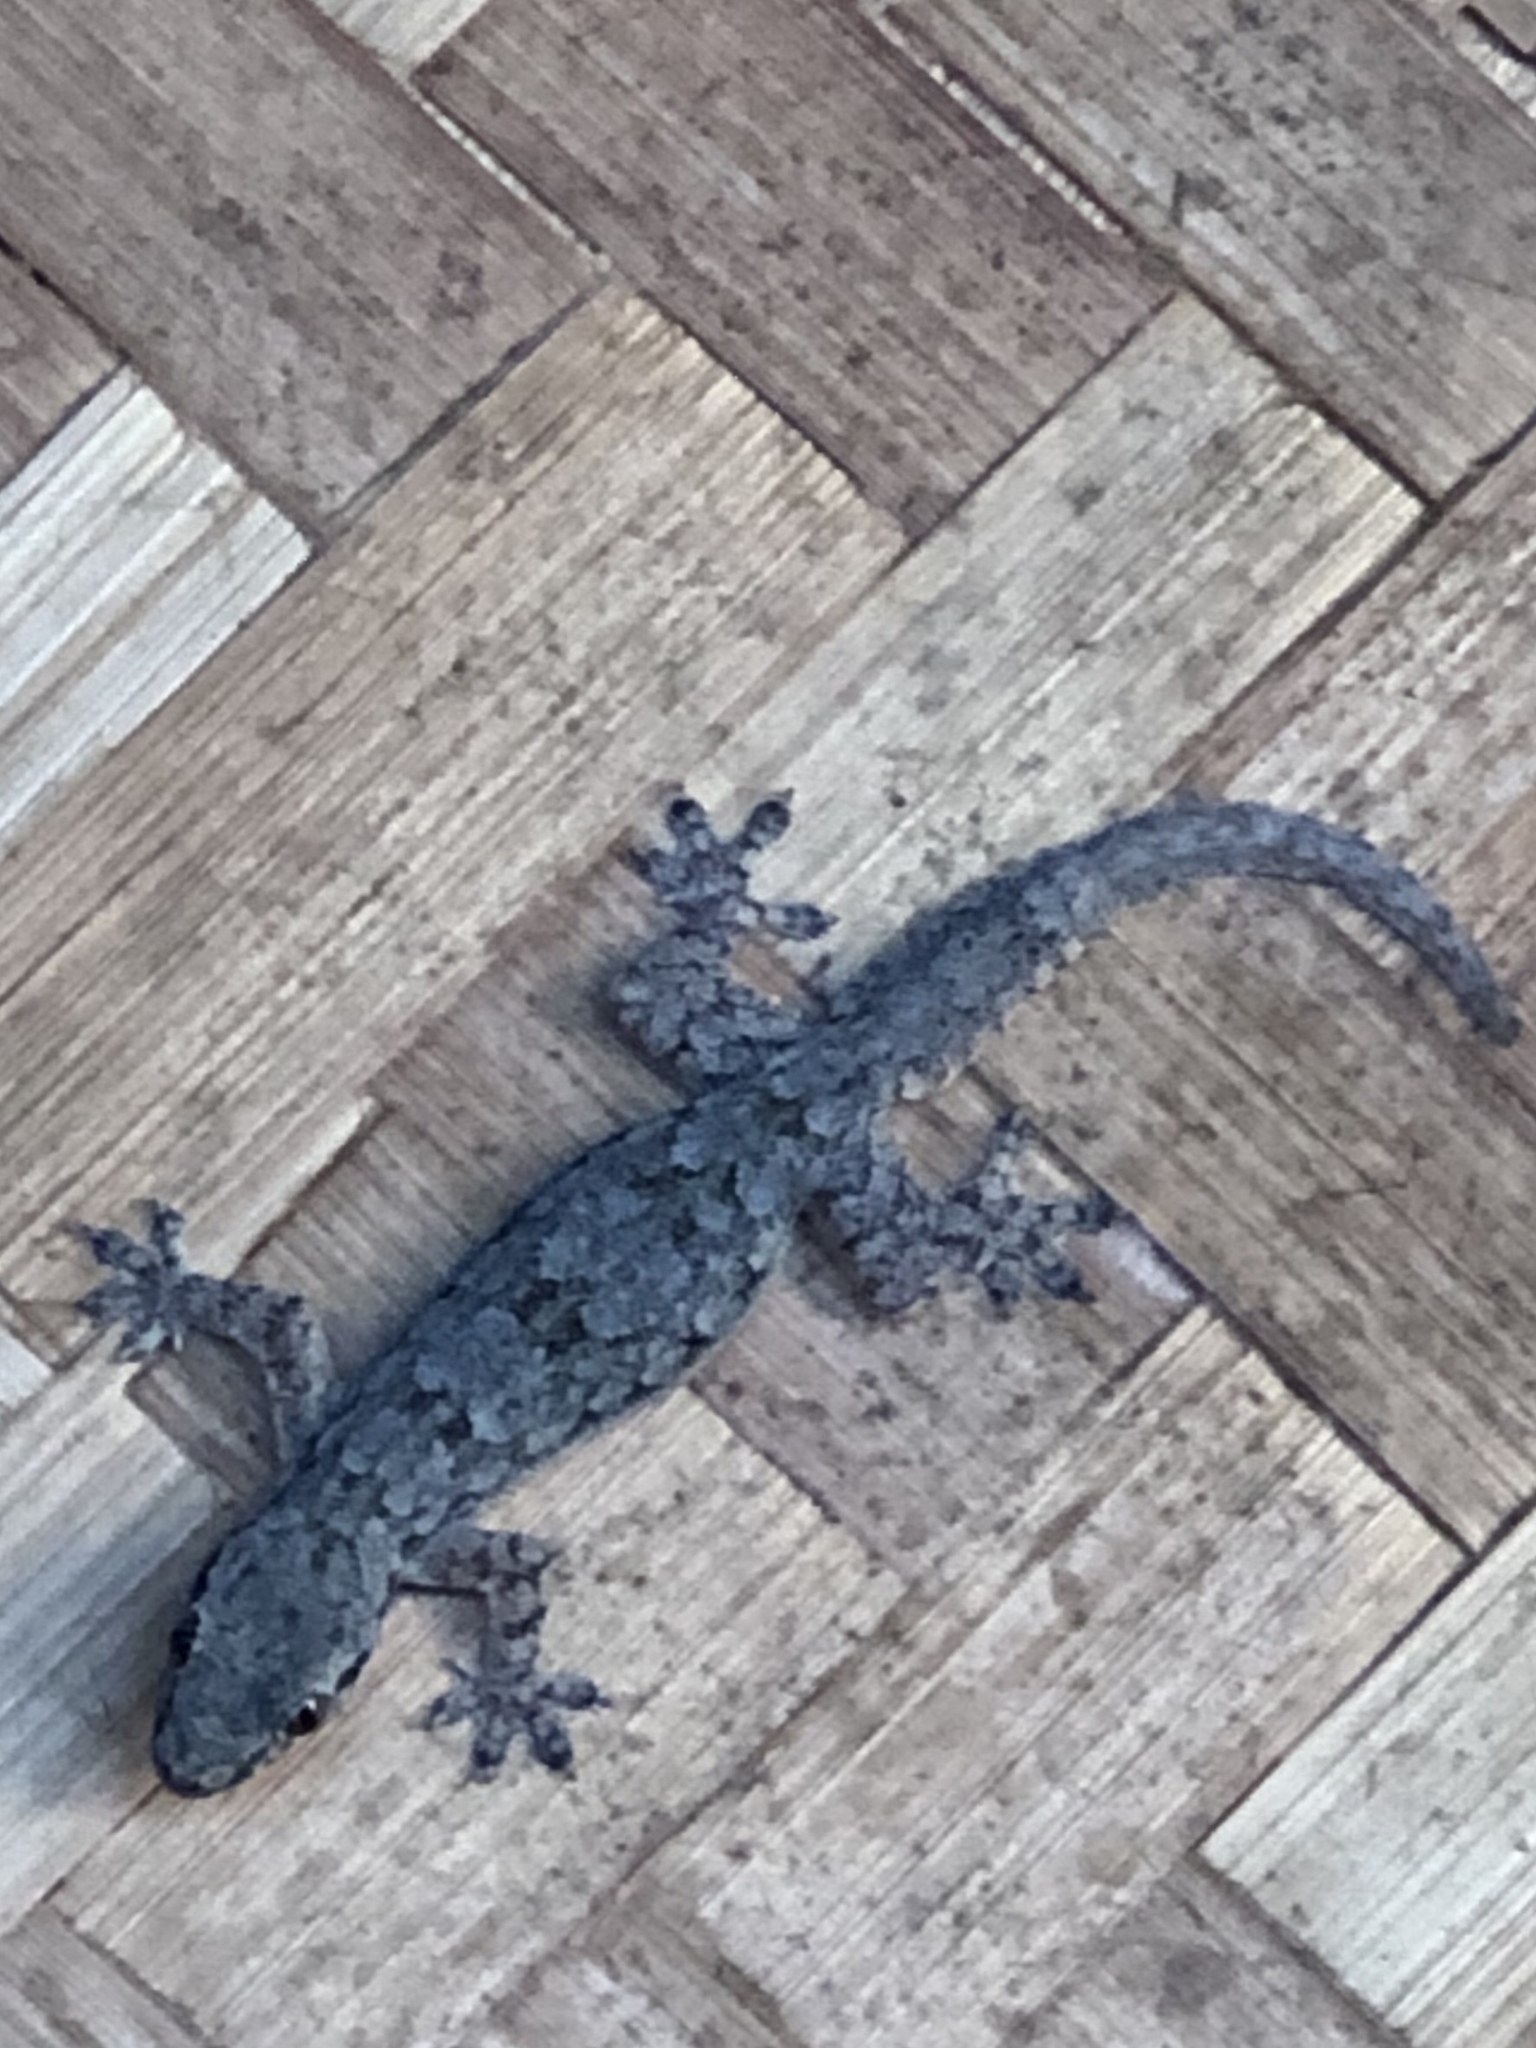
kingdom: Animalia
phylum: Chordata
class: Squamata
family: Gekkonidae
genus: Hemidactylus
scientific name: Hemidactylus platyurus
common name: Flat-tailed house gecko
